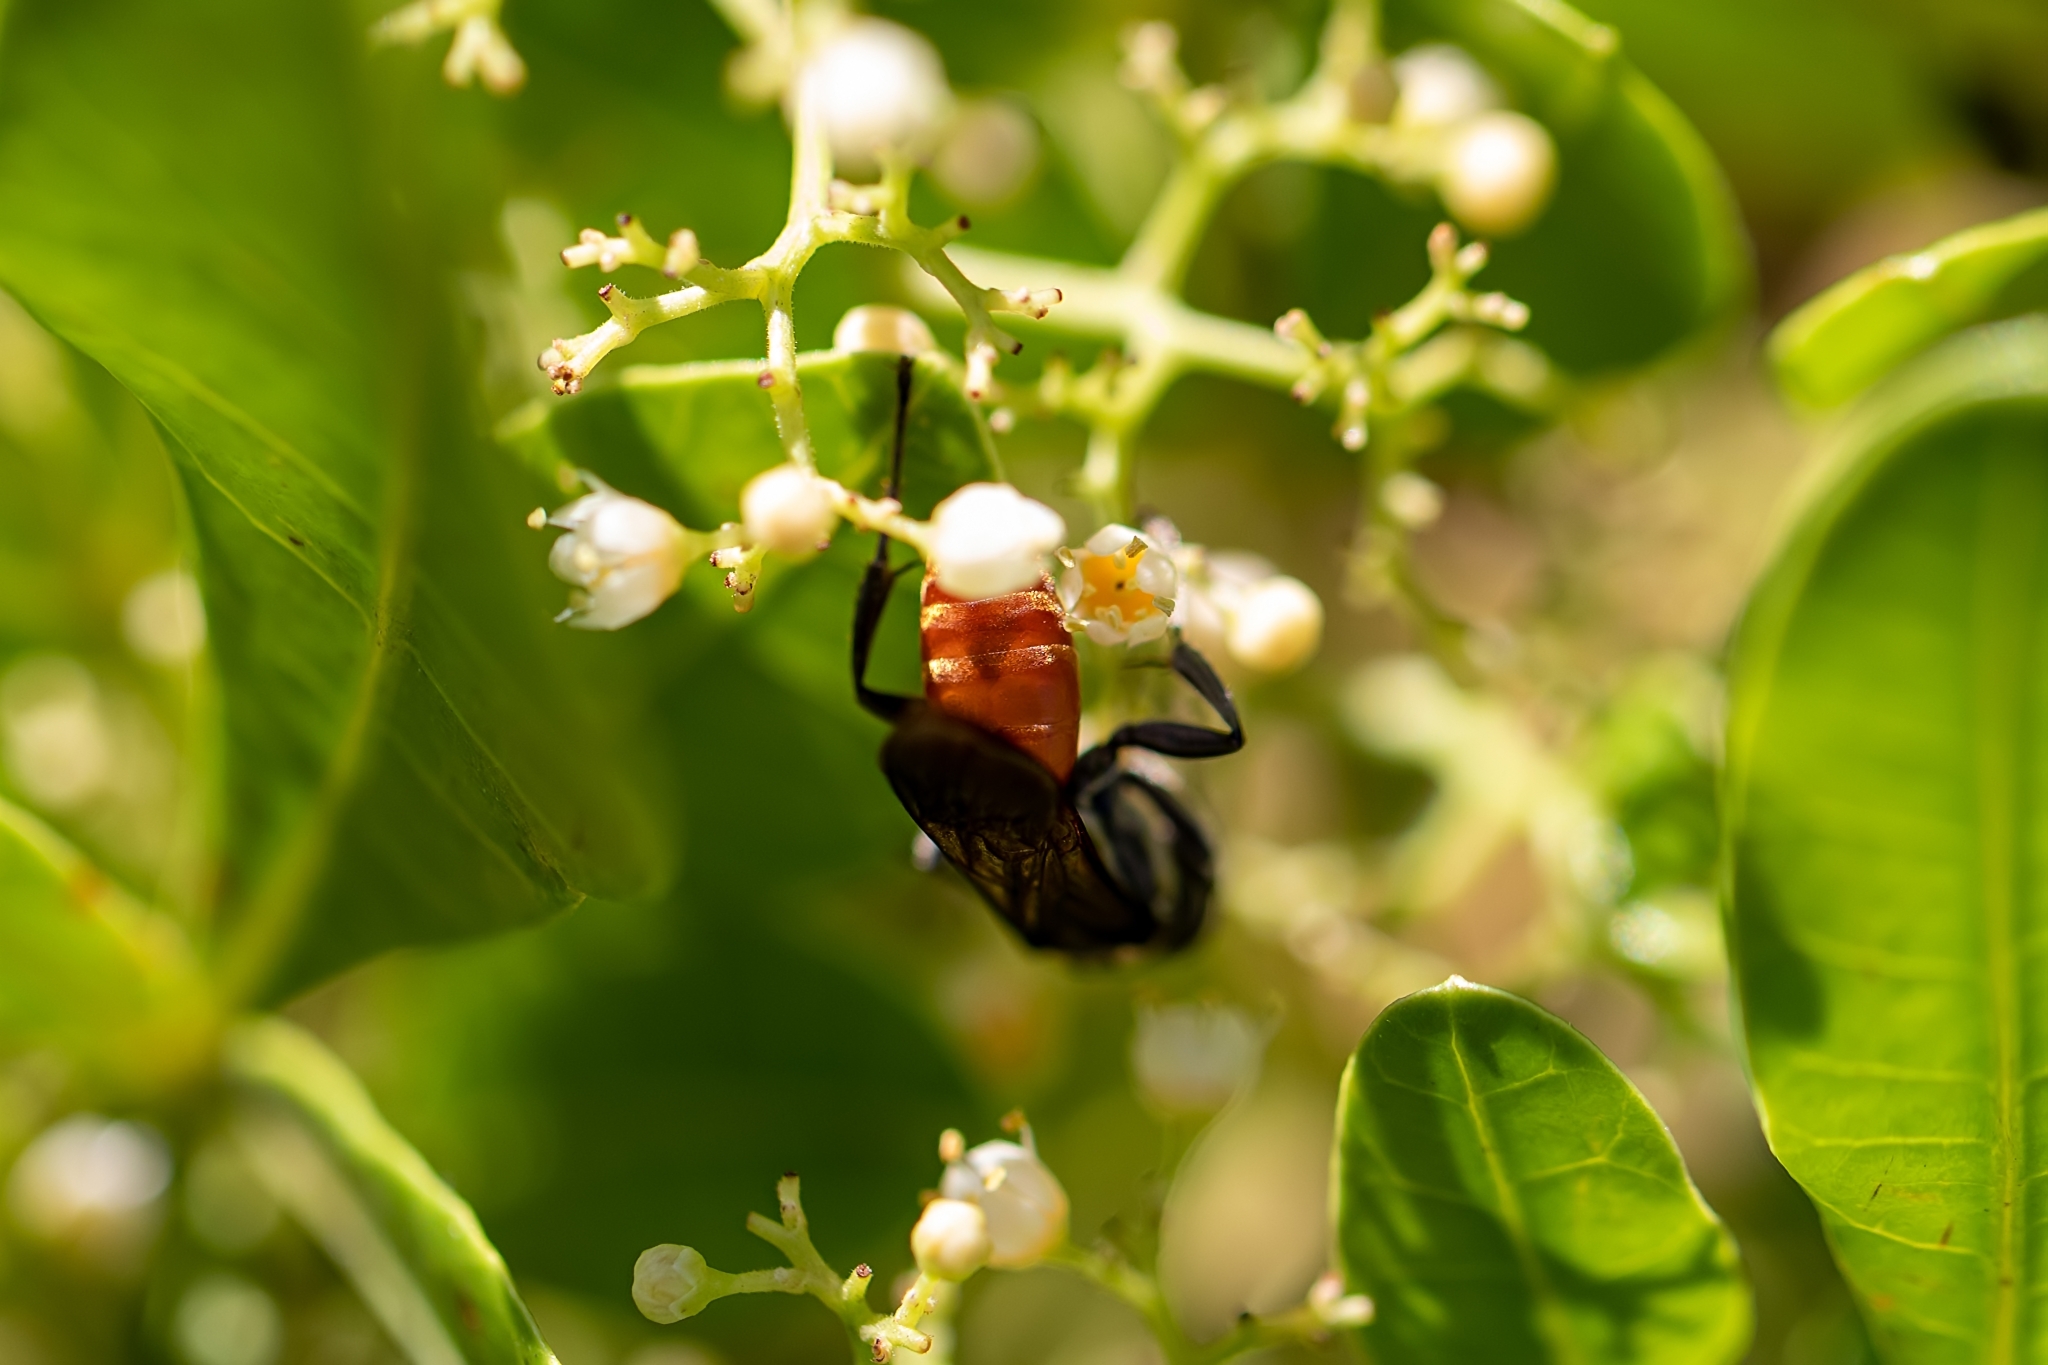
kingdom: Animalia
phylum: Arthropoda
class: Insecta
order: Hymenoptera
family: Crabronidae
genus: Larra
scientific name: Larra bicolor
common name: Wasp
